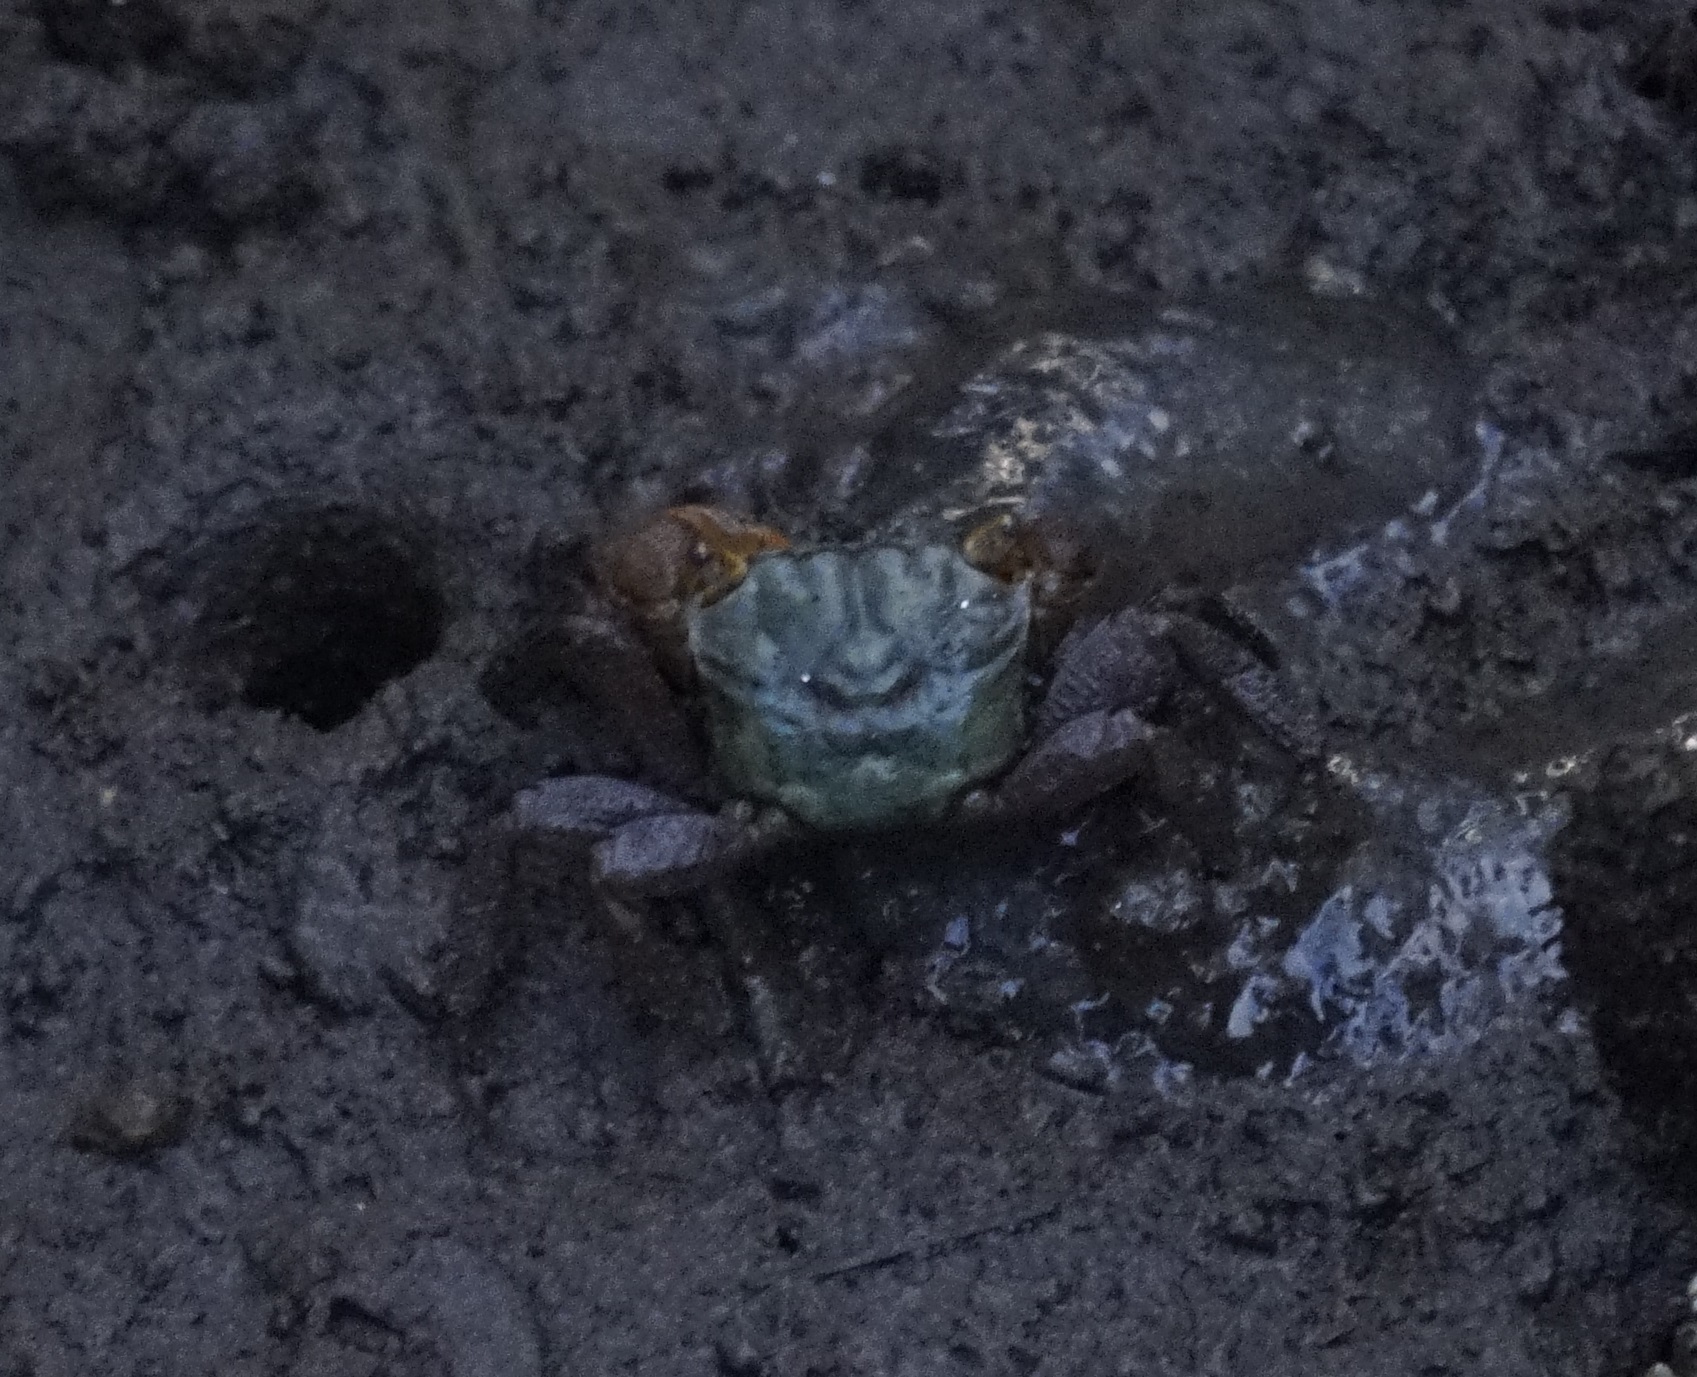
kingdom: Animalia
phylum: Arthropoda
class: Malacostraca
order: Decapoda
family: Sesarmidae
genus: Parasesarma
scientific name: Parasesarma erythodactylum
